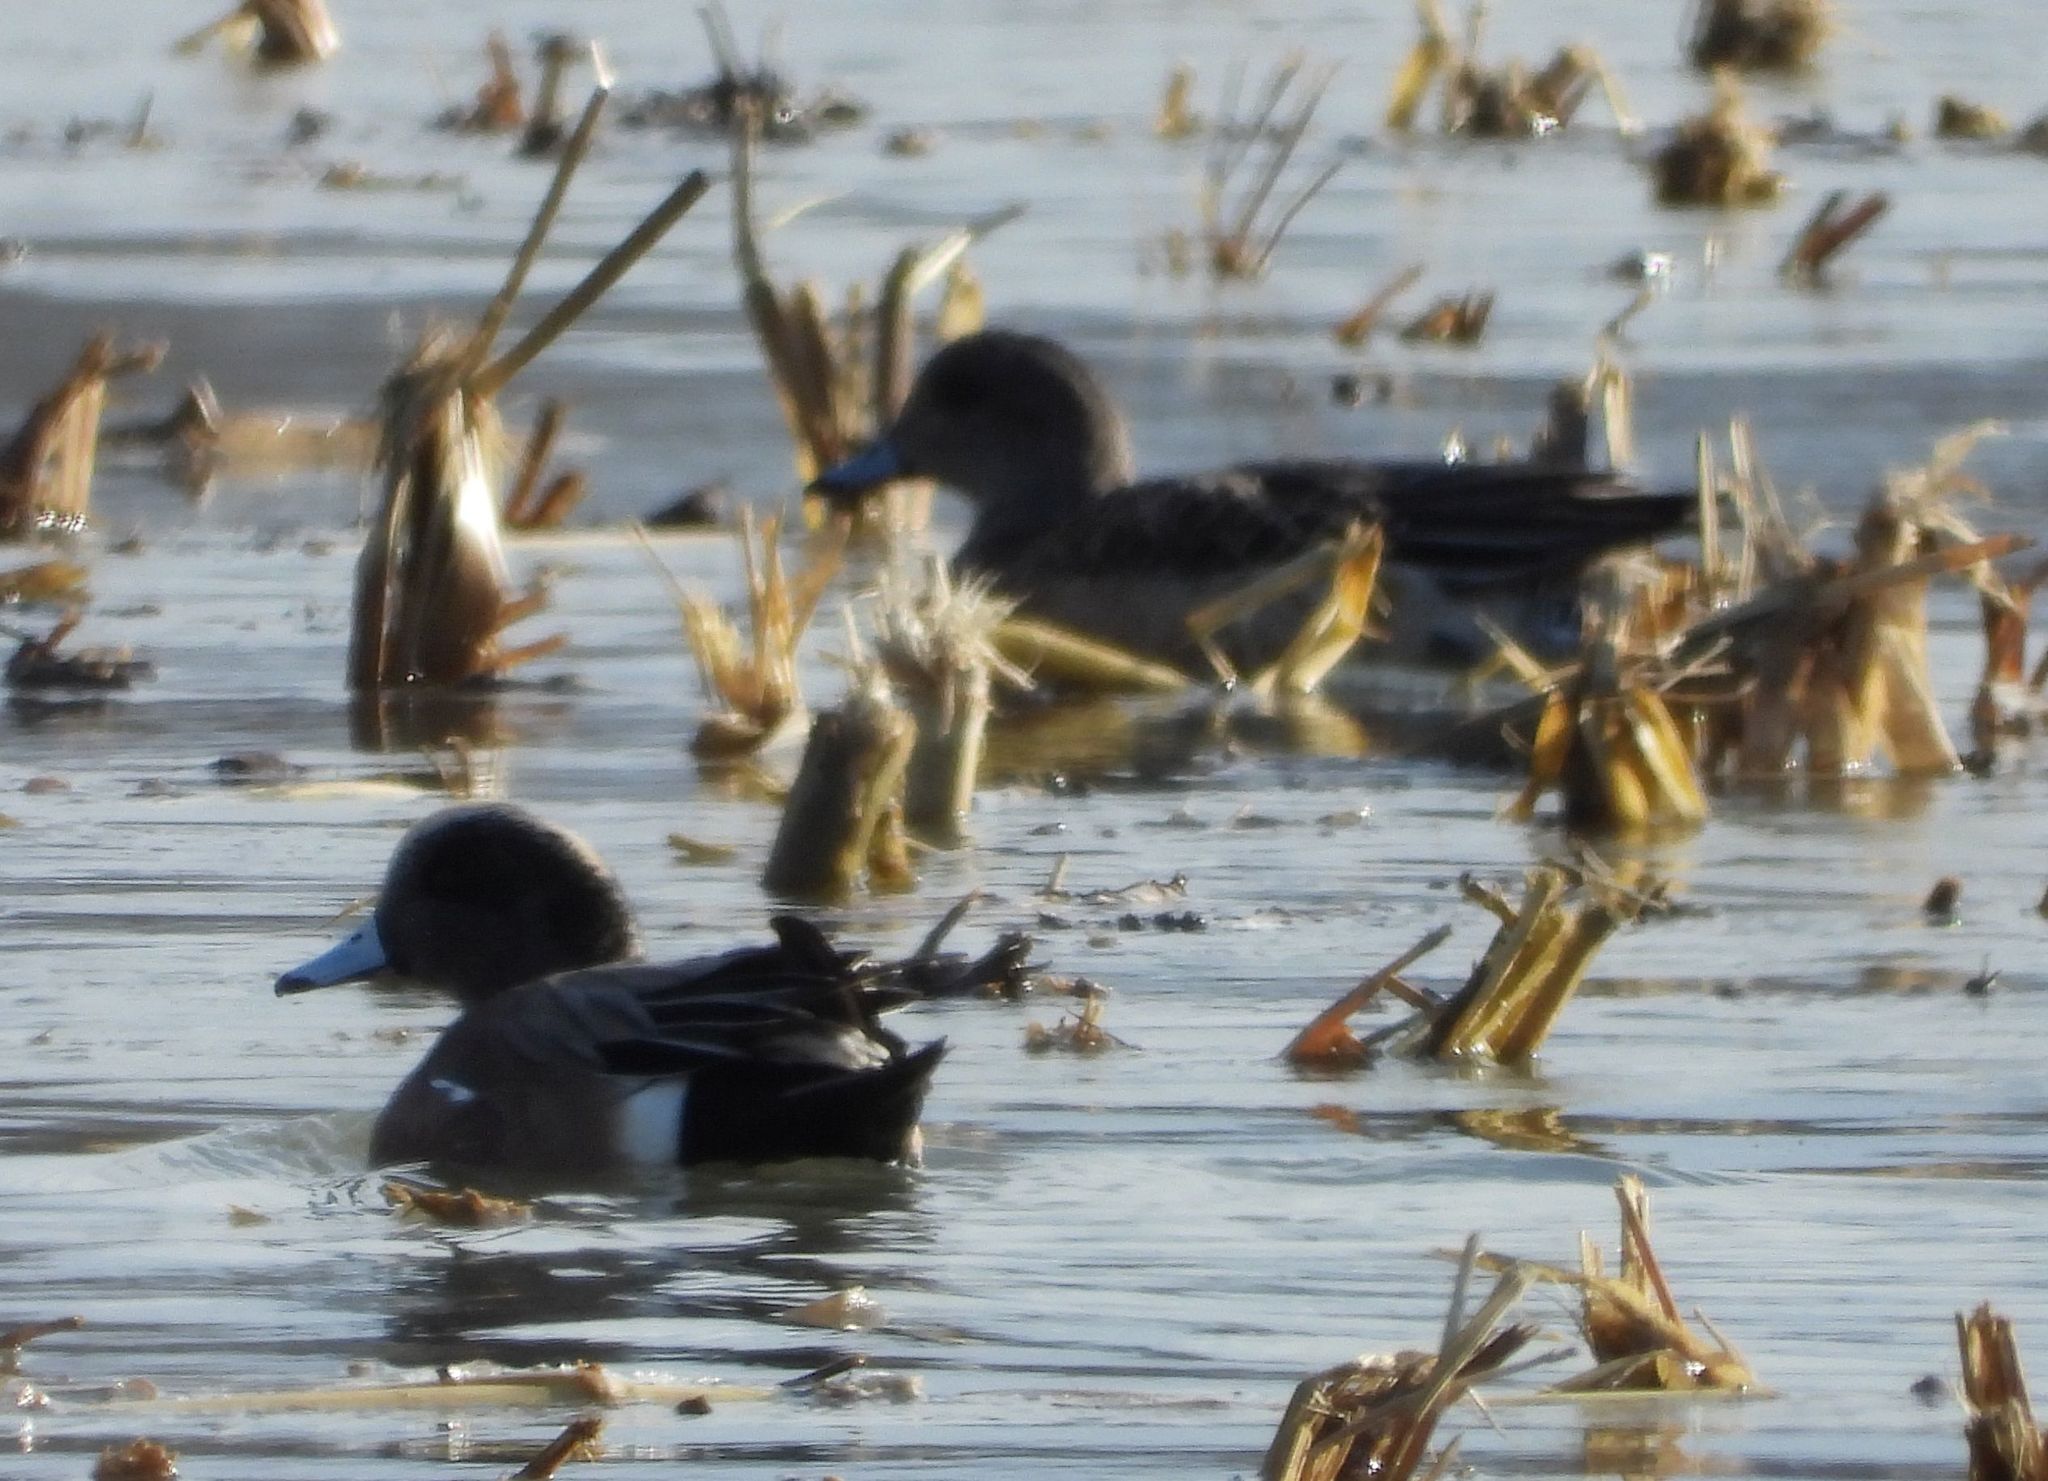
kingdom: Animalia
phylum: Chordata
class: Aves
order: Anseriformes
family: Anatidae
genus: Mareca
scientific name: Mareca americana
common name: American wigeon
